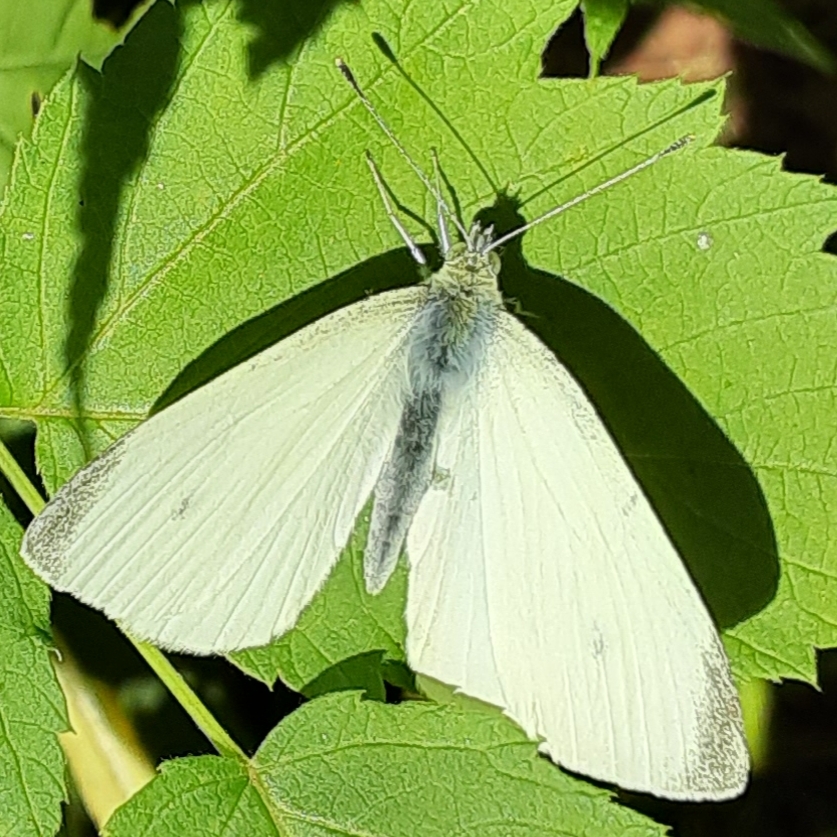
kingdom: Animalia
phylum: Arthropoda
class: Insecta
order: Lepidoptera
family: Pieridae
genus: Pieris
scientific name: Pieris rapae
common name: Small white
